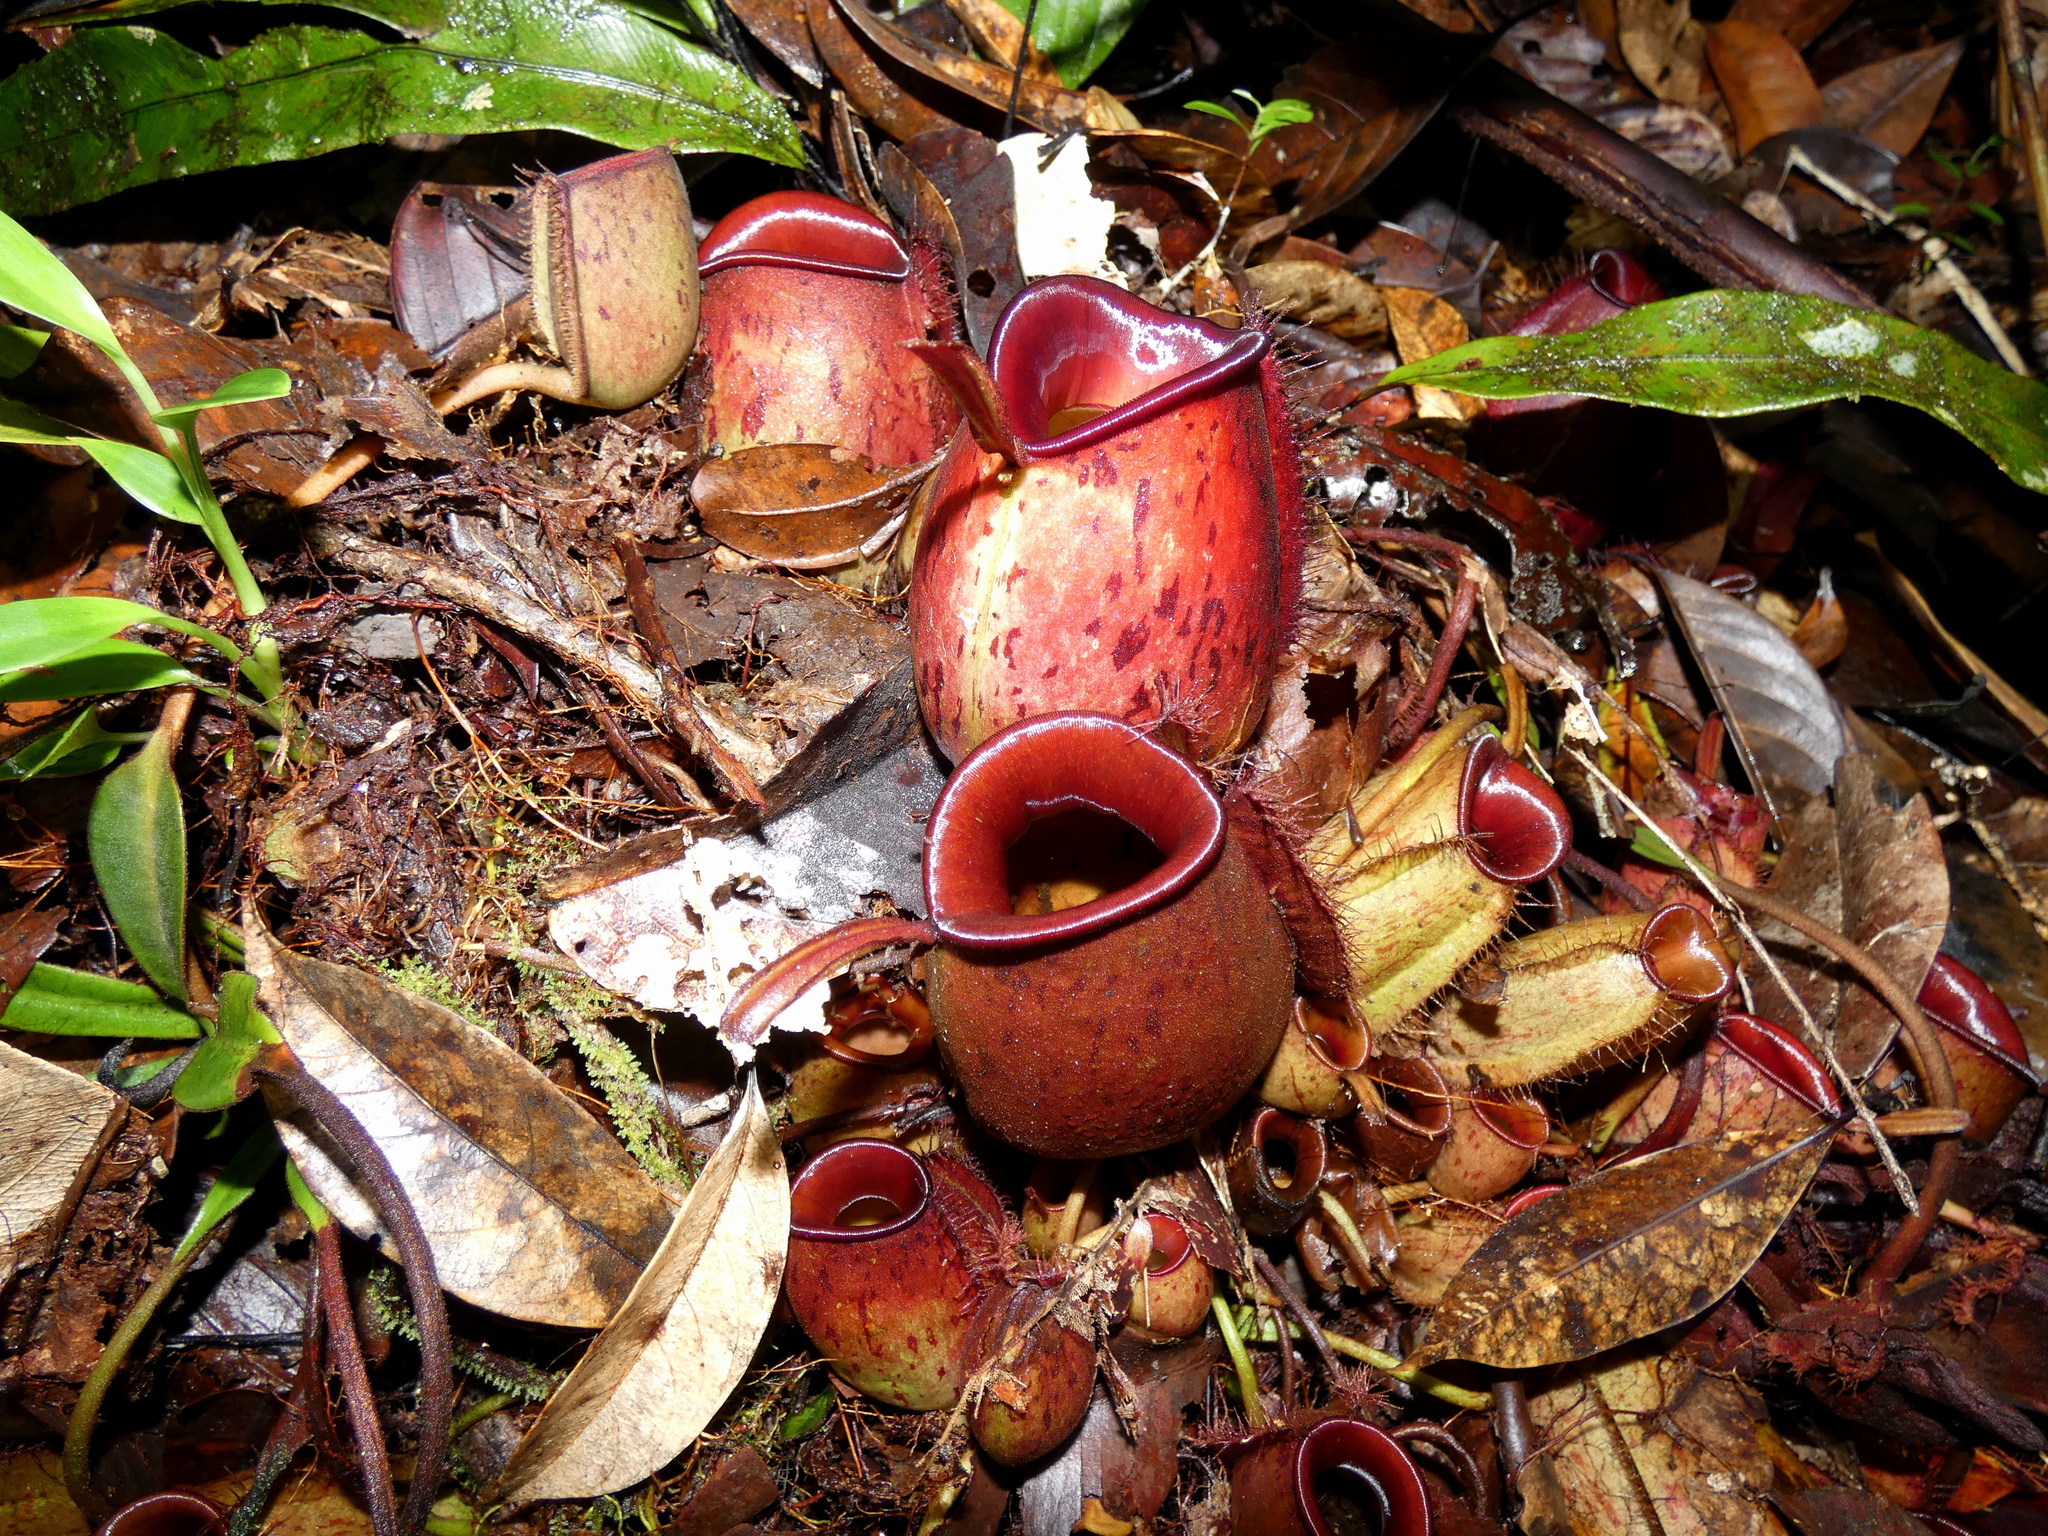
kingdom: Plantae
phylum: Tracheophyta
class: Magnoliopsida
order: Caryophyllales
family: Nepenthaceae
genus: Nepenthes
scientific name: Nepenthes ampullaria
